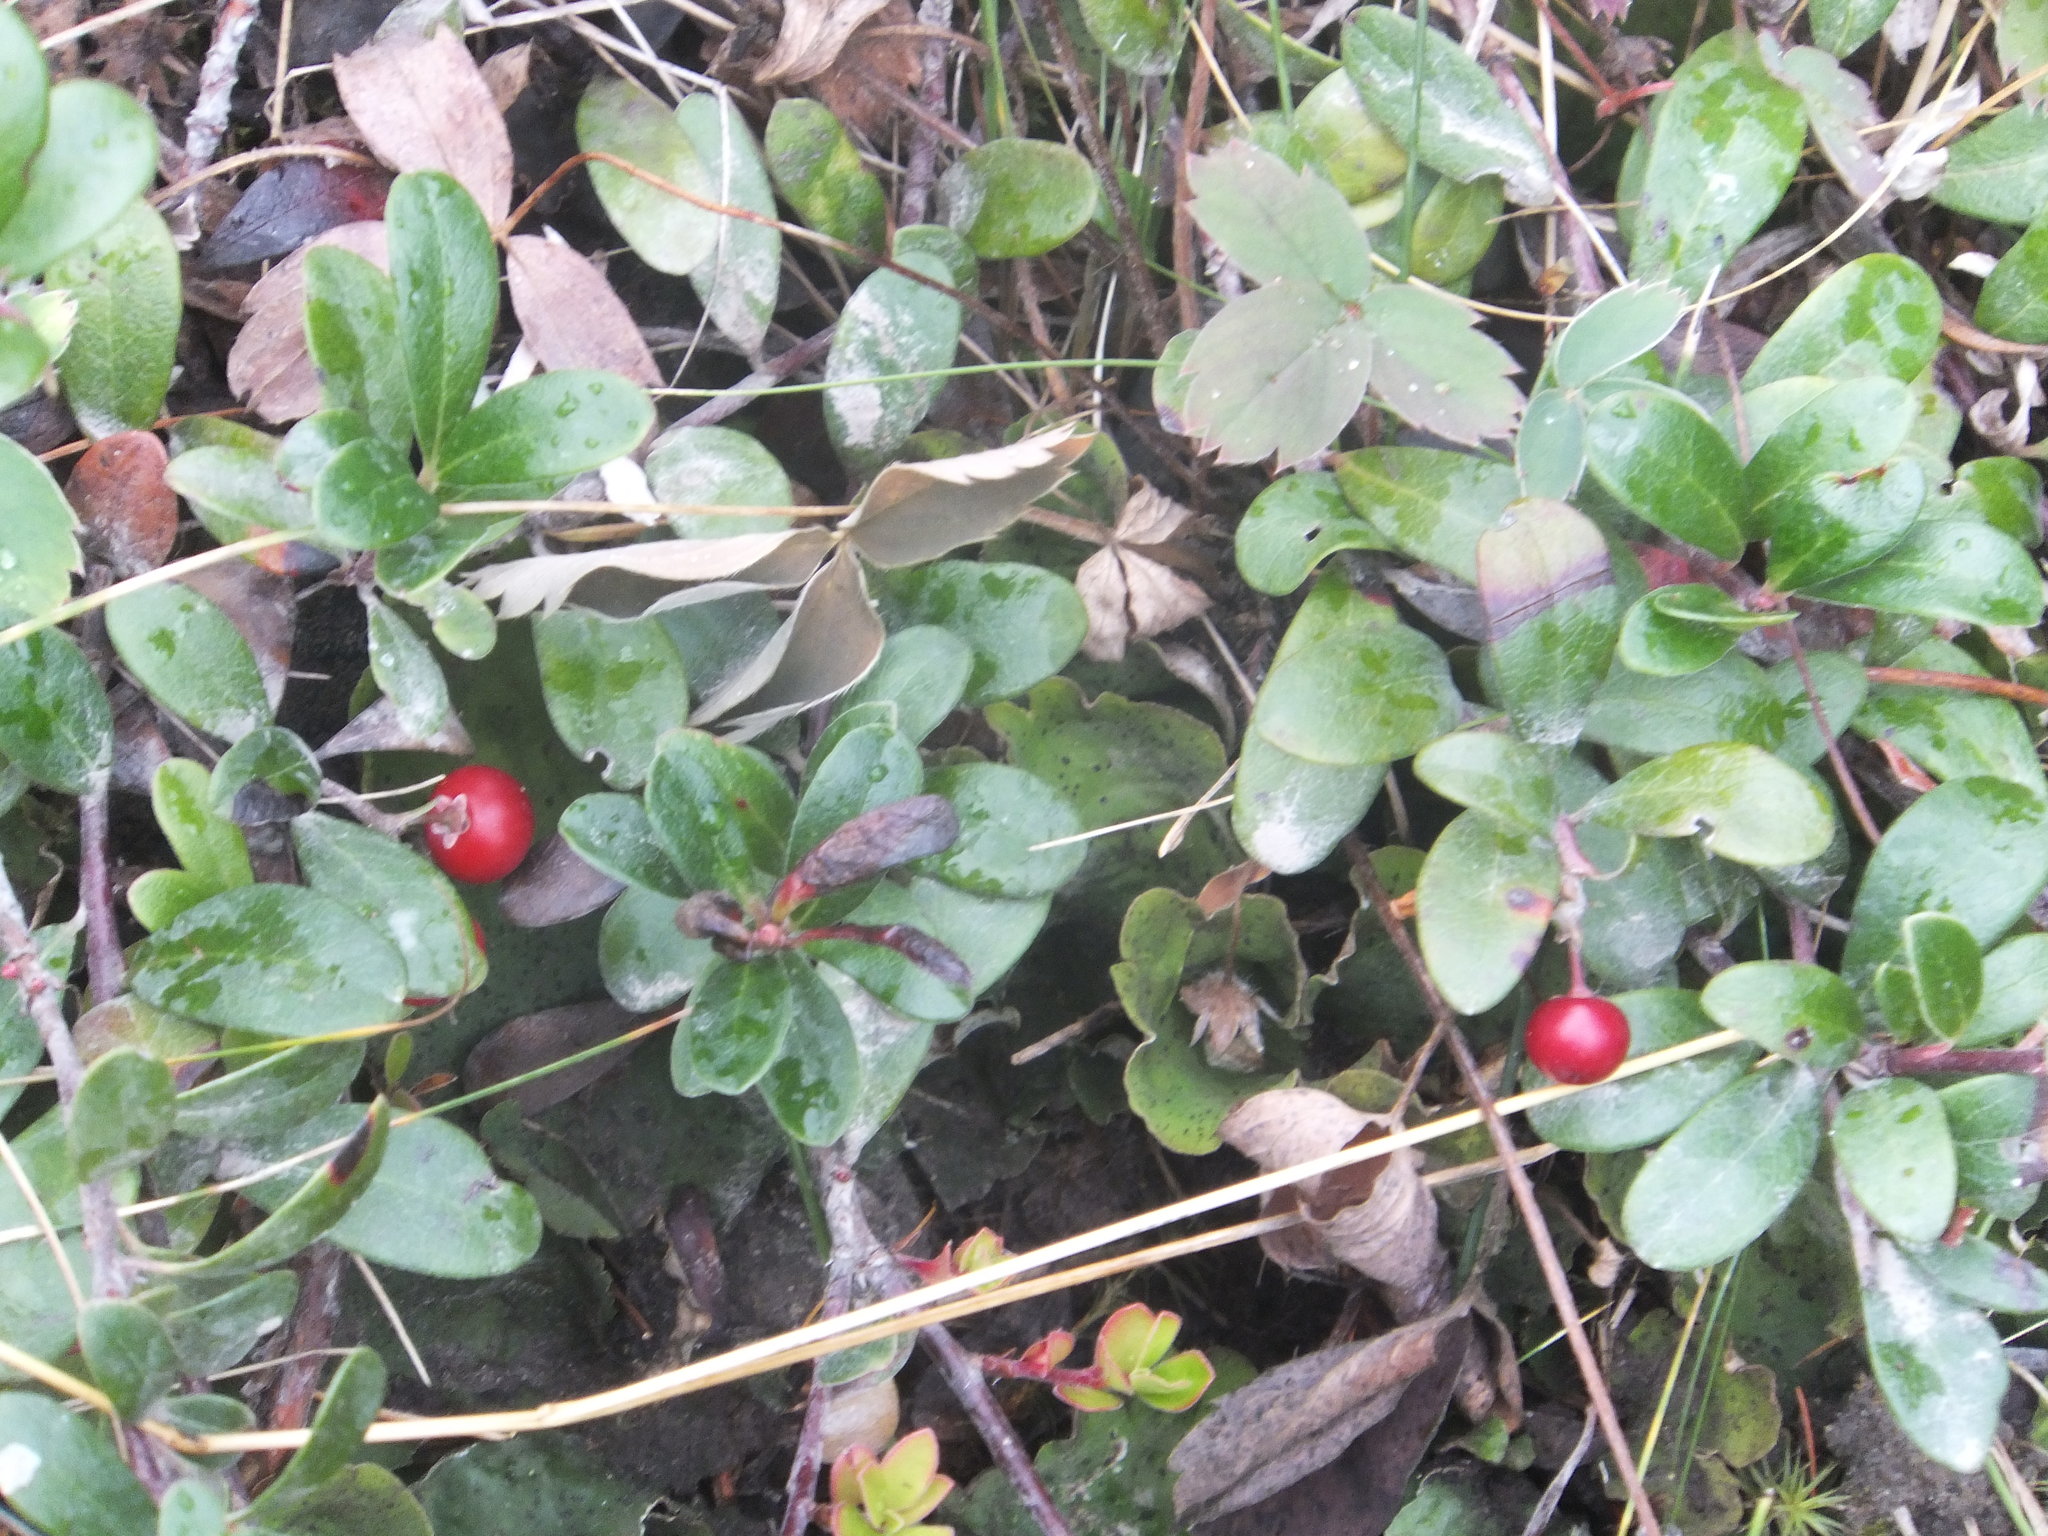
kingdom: Plantae
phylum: Tracheophyta
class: Magnoliopsida
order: Ericales
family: Ericaceae
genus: Arctostaphylos
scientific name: Arctostaphylos uva-ursi
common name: Bearberry
